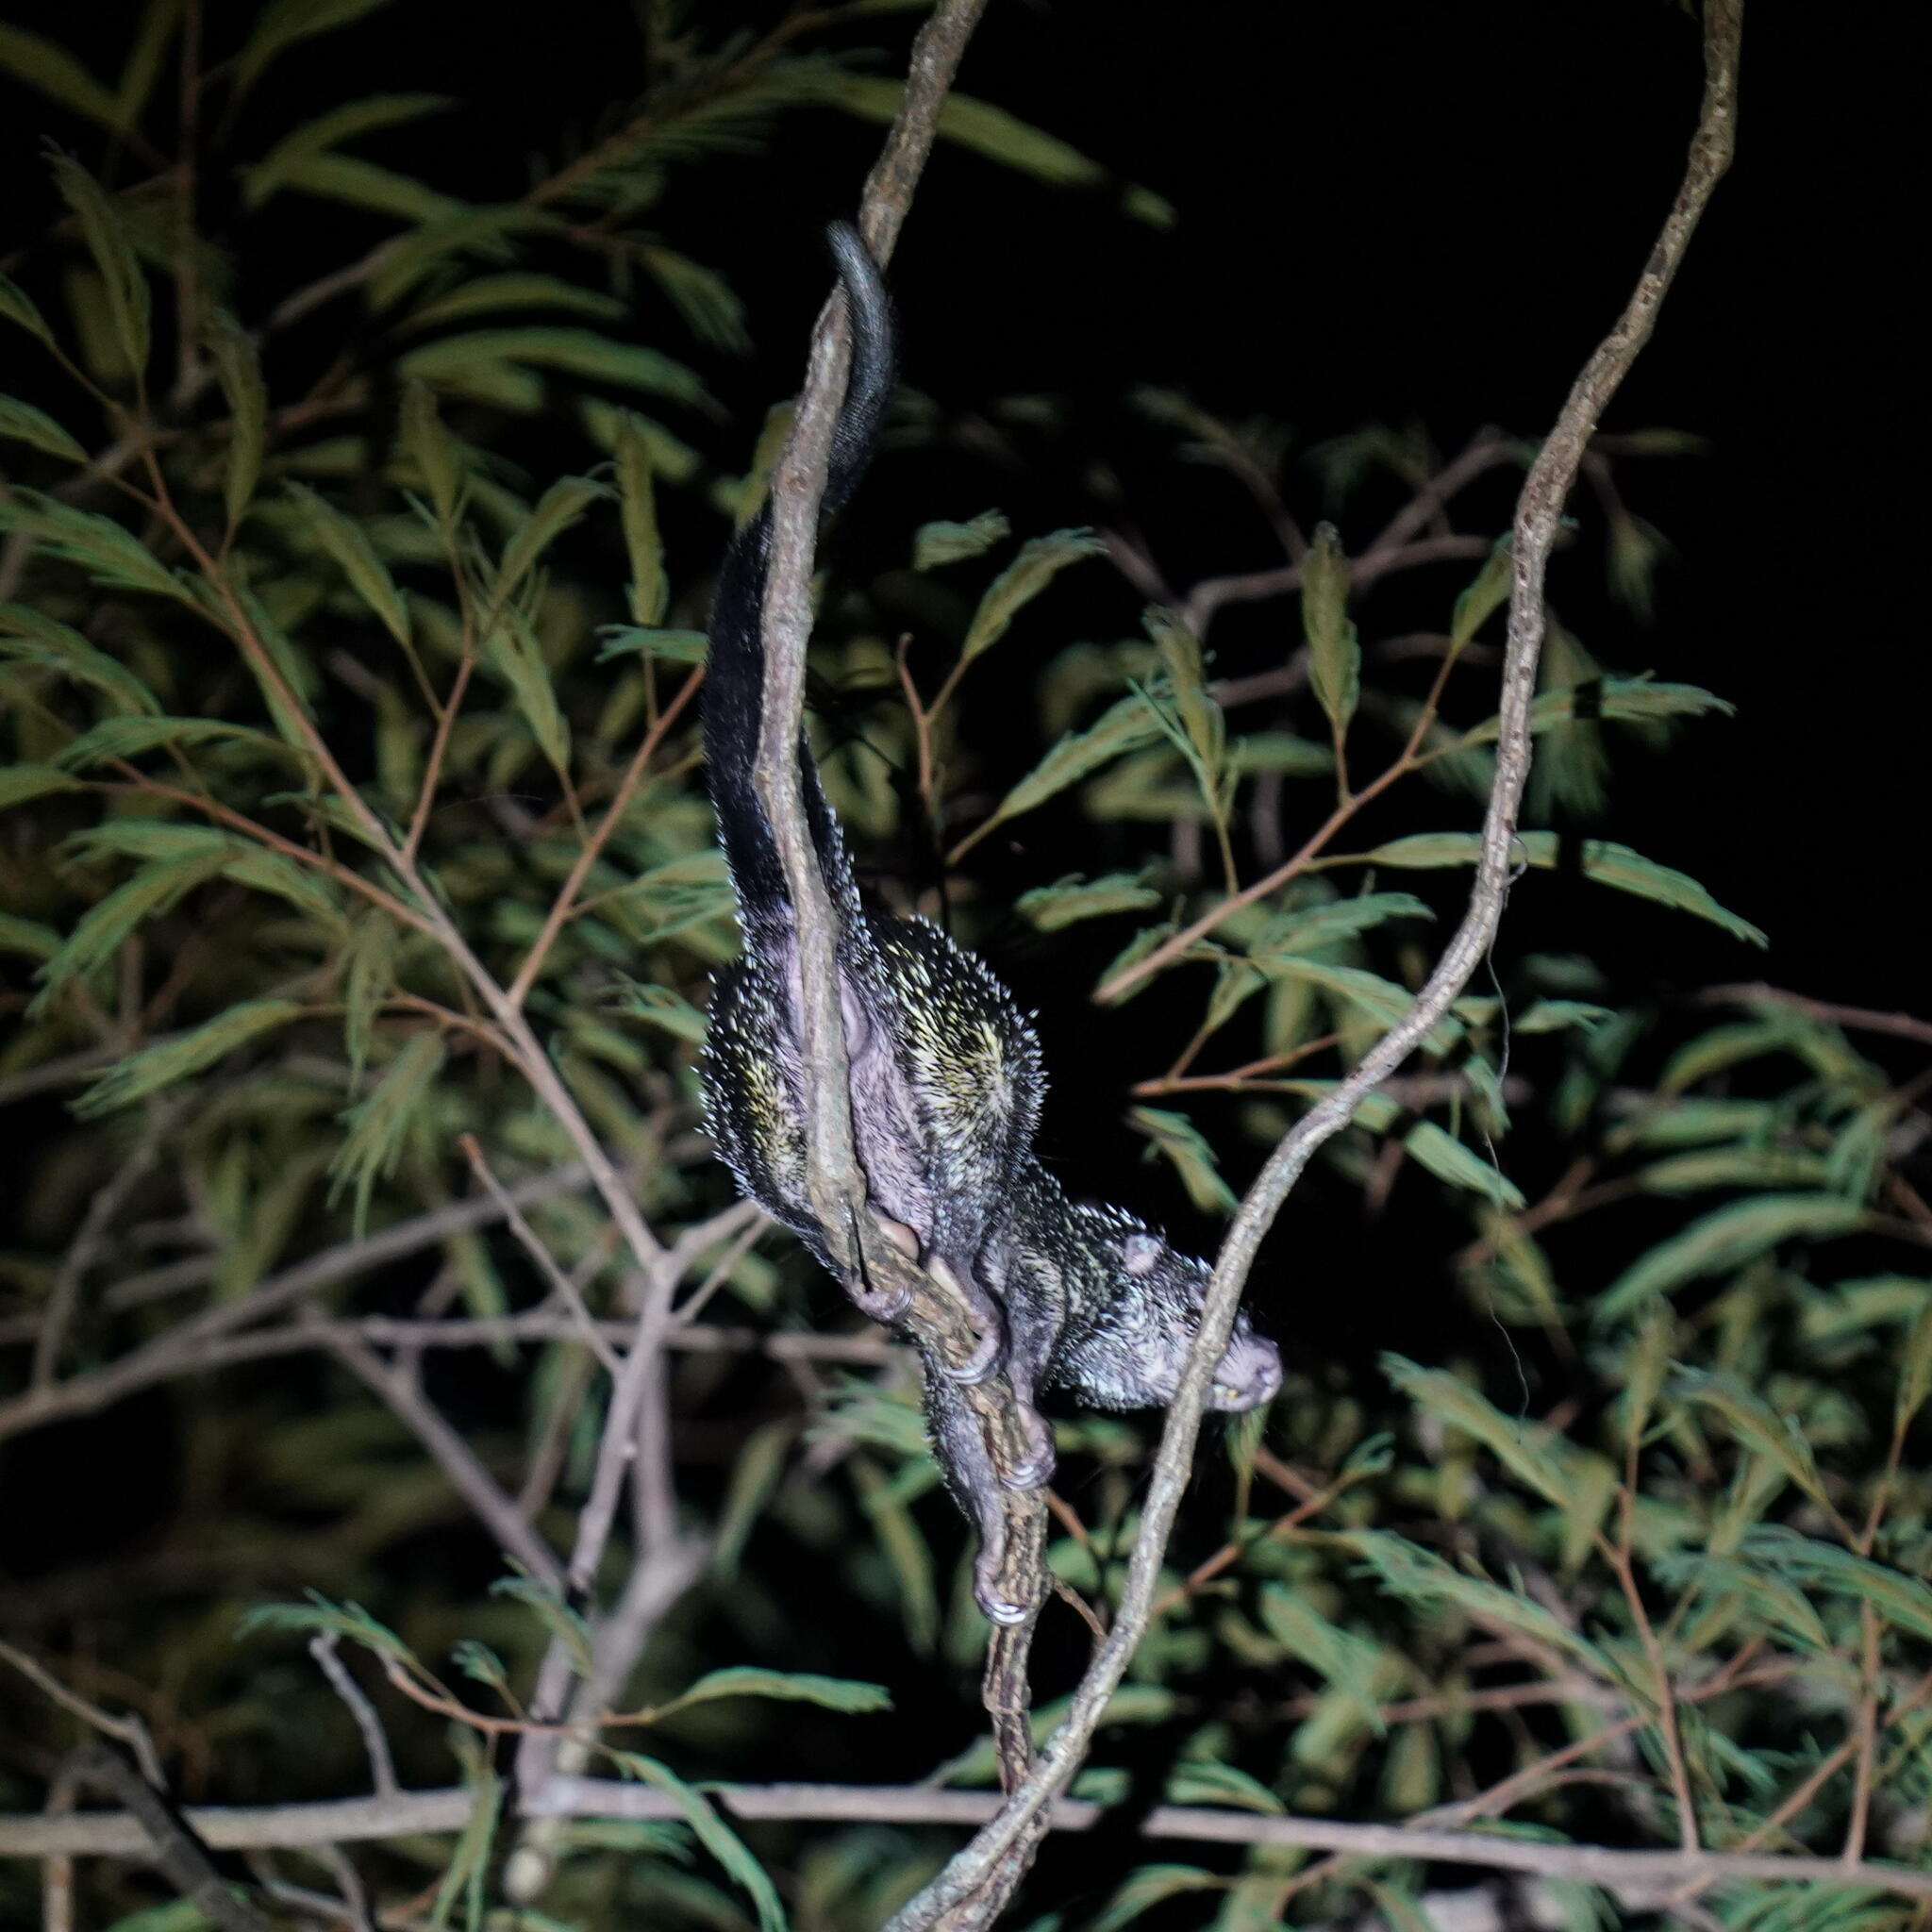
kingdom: Animalia
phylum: Chordata
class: Mammalia
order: Rodentia
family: Erethizontidae
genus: Coendou
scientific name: Coendou quichua
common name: Quichua porcupine
